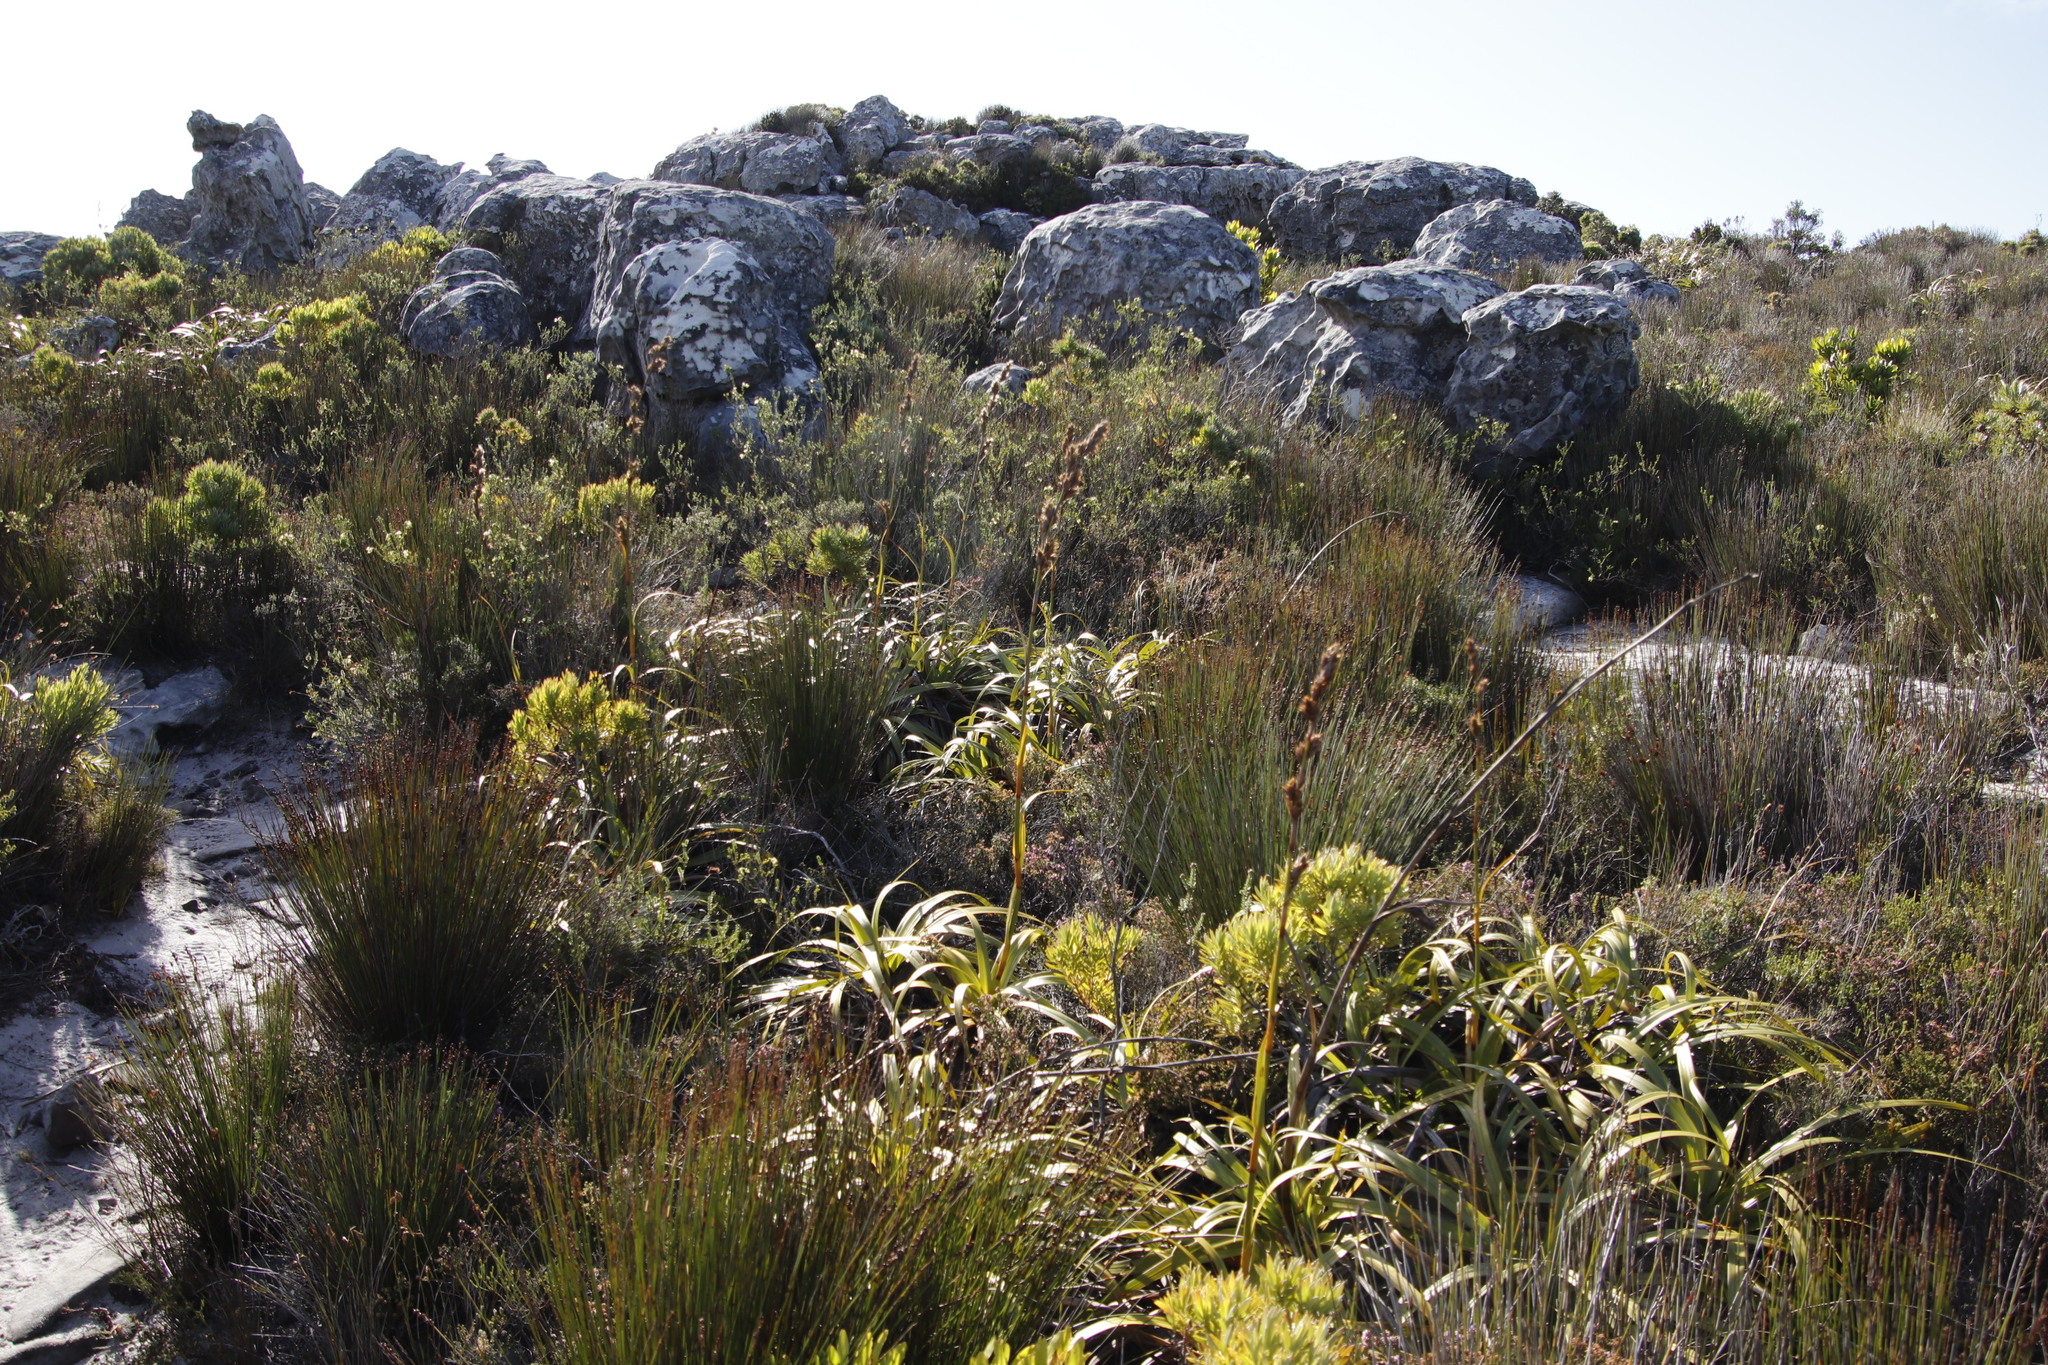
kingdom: Plantae
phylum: Tracheophyta
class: Liliopsida
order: Poales
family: Cyperaceae
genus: Tetraria
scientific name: Tetraria thermalis
